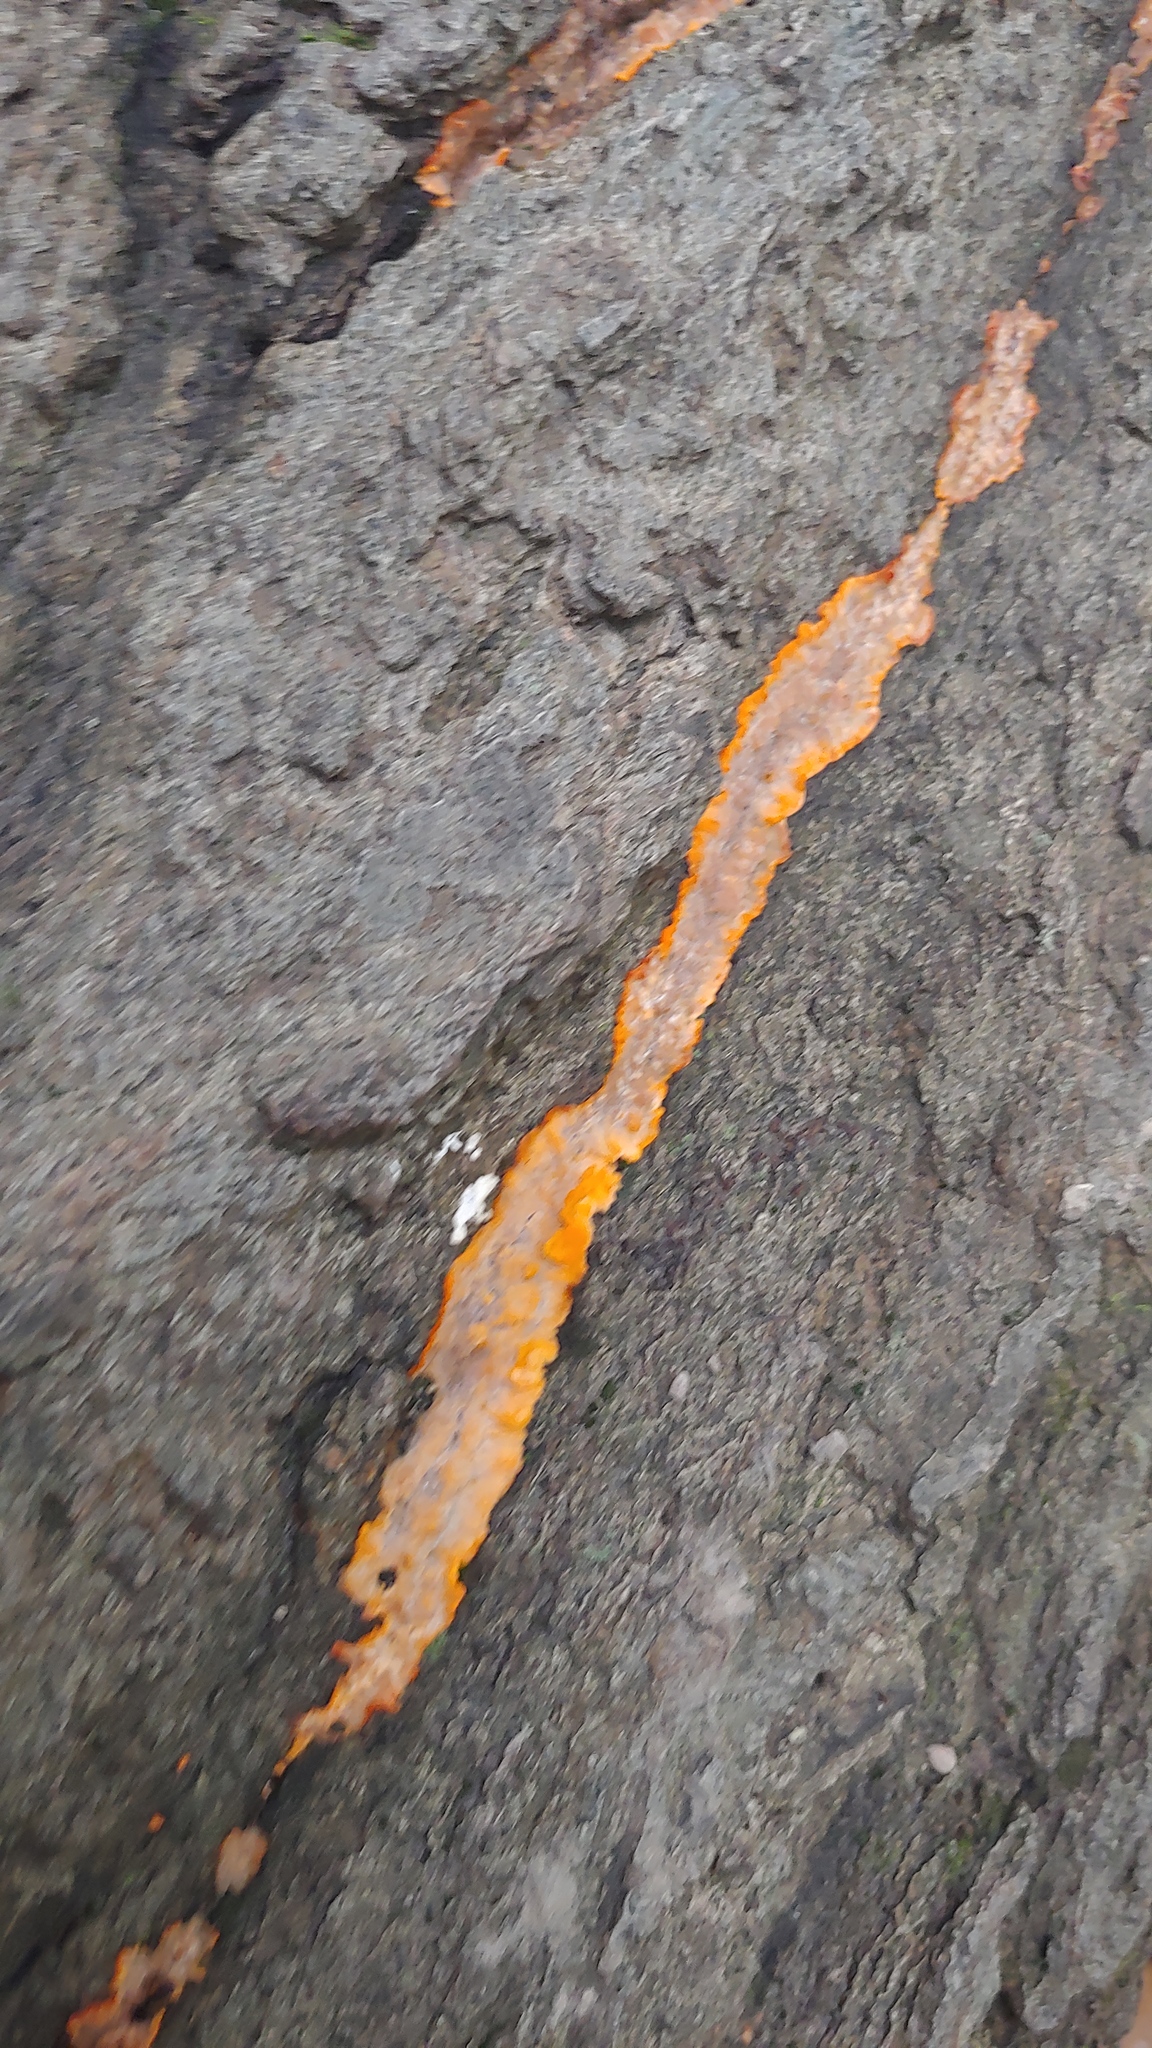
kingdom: Fungi
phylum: Basidiomycota
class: Agaricomycetes
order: Polyporales
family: Meruliaceae
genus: Phlebia
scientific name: Phlebia radiata
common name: Wrinkled crust
